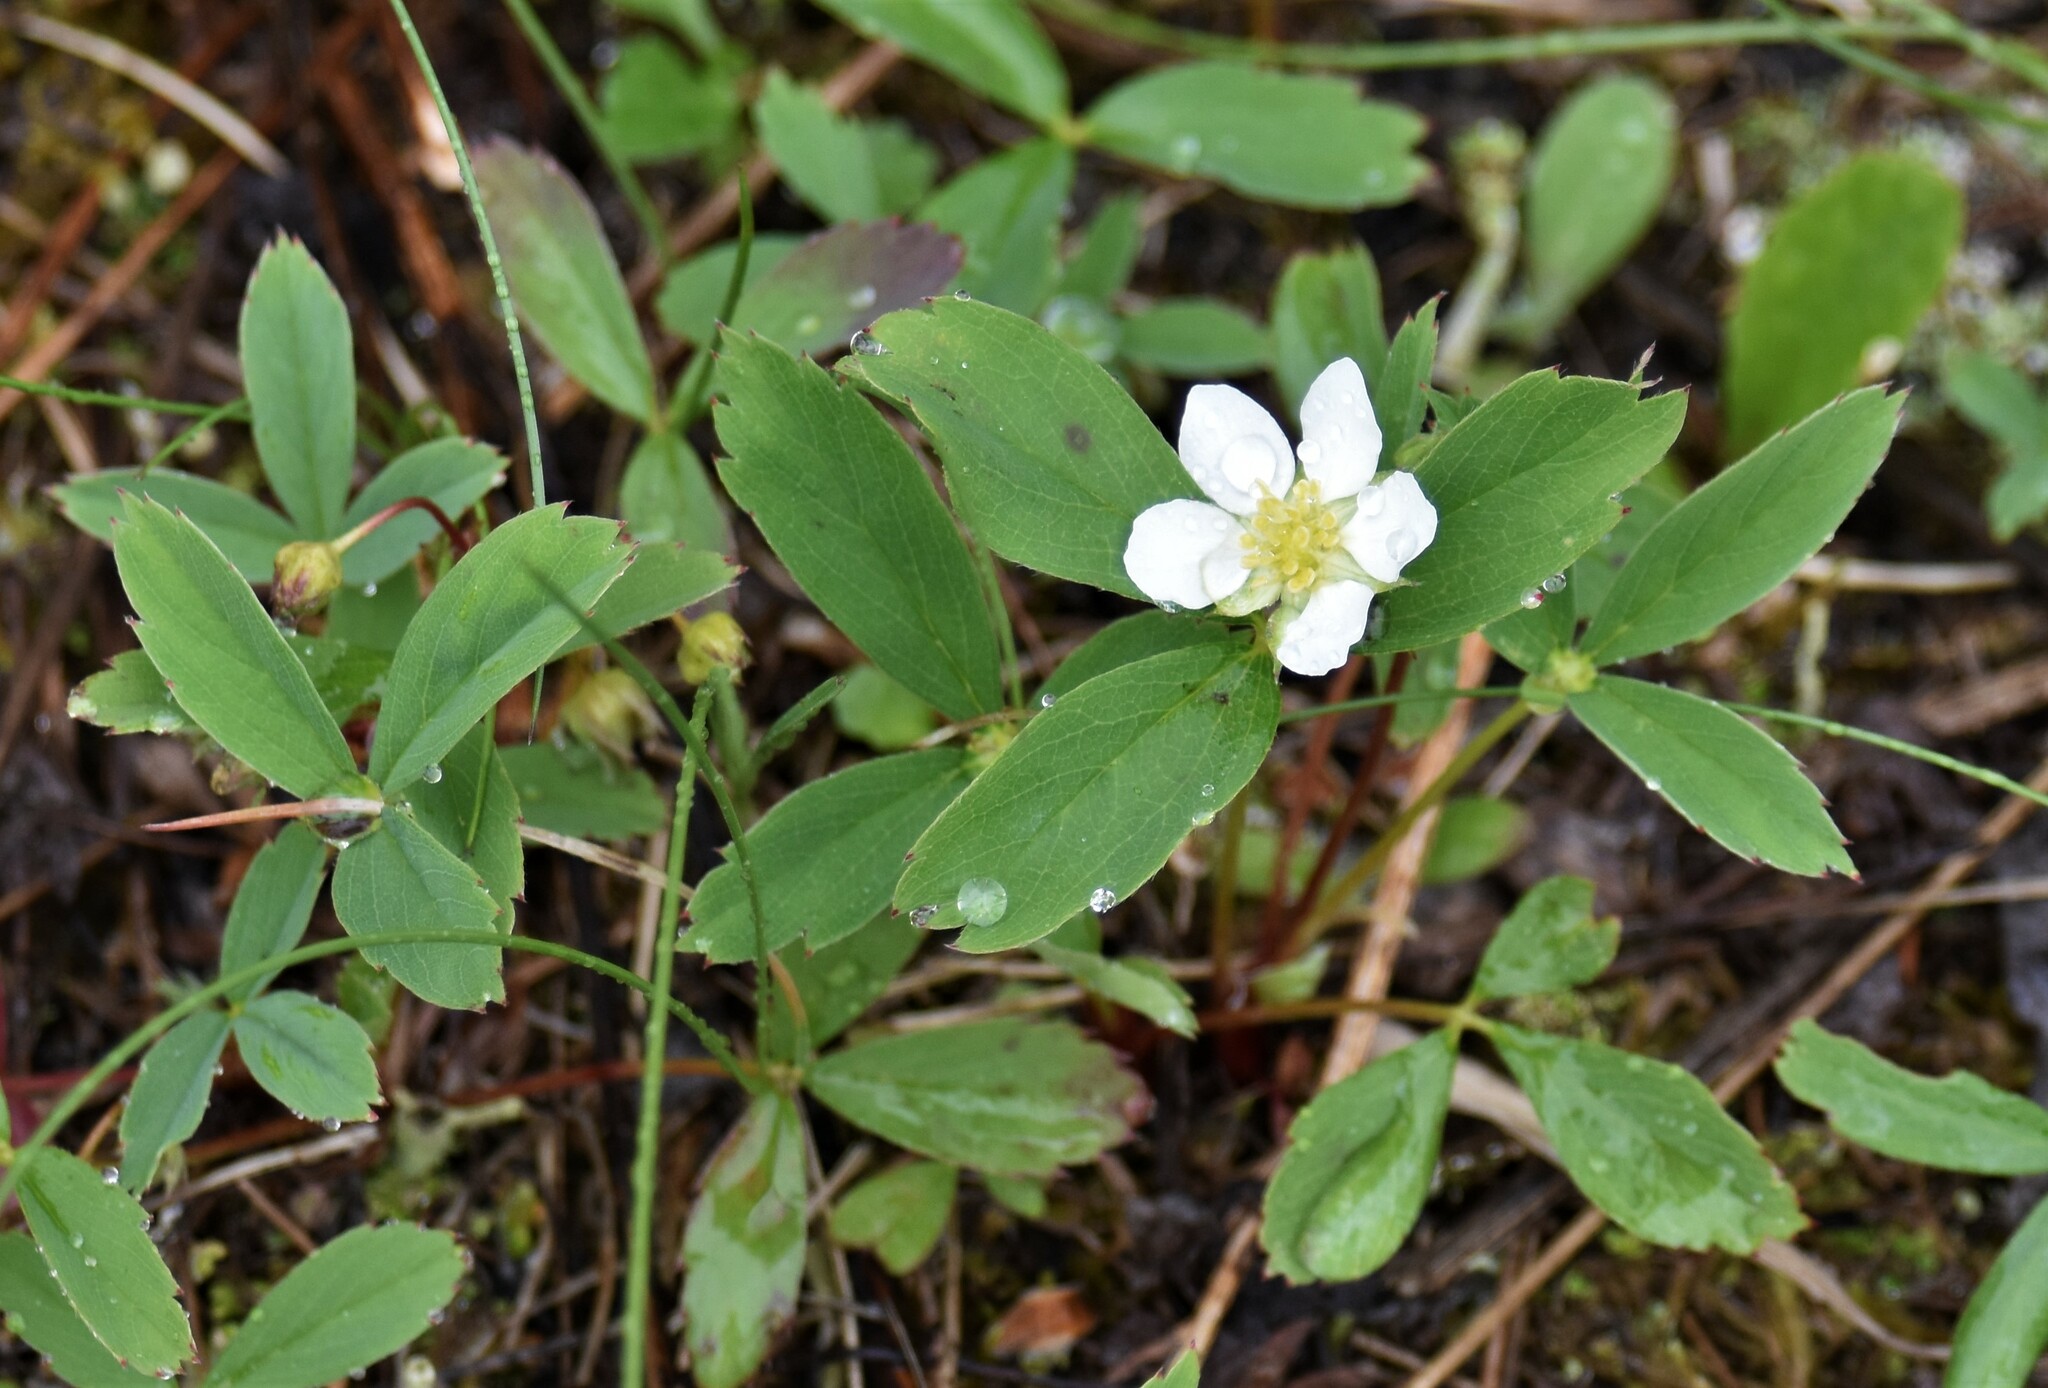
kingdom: Plantae
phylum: Tracheophyta
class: Magnoliopsida
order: Rosales
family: Rosaceae
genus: Fragaria
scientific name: Fragaria virginiana
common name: Thickleaved wild strawberry
